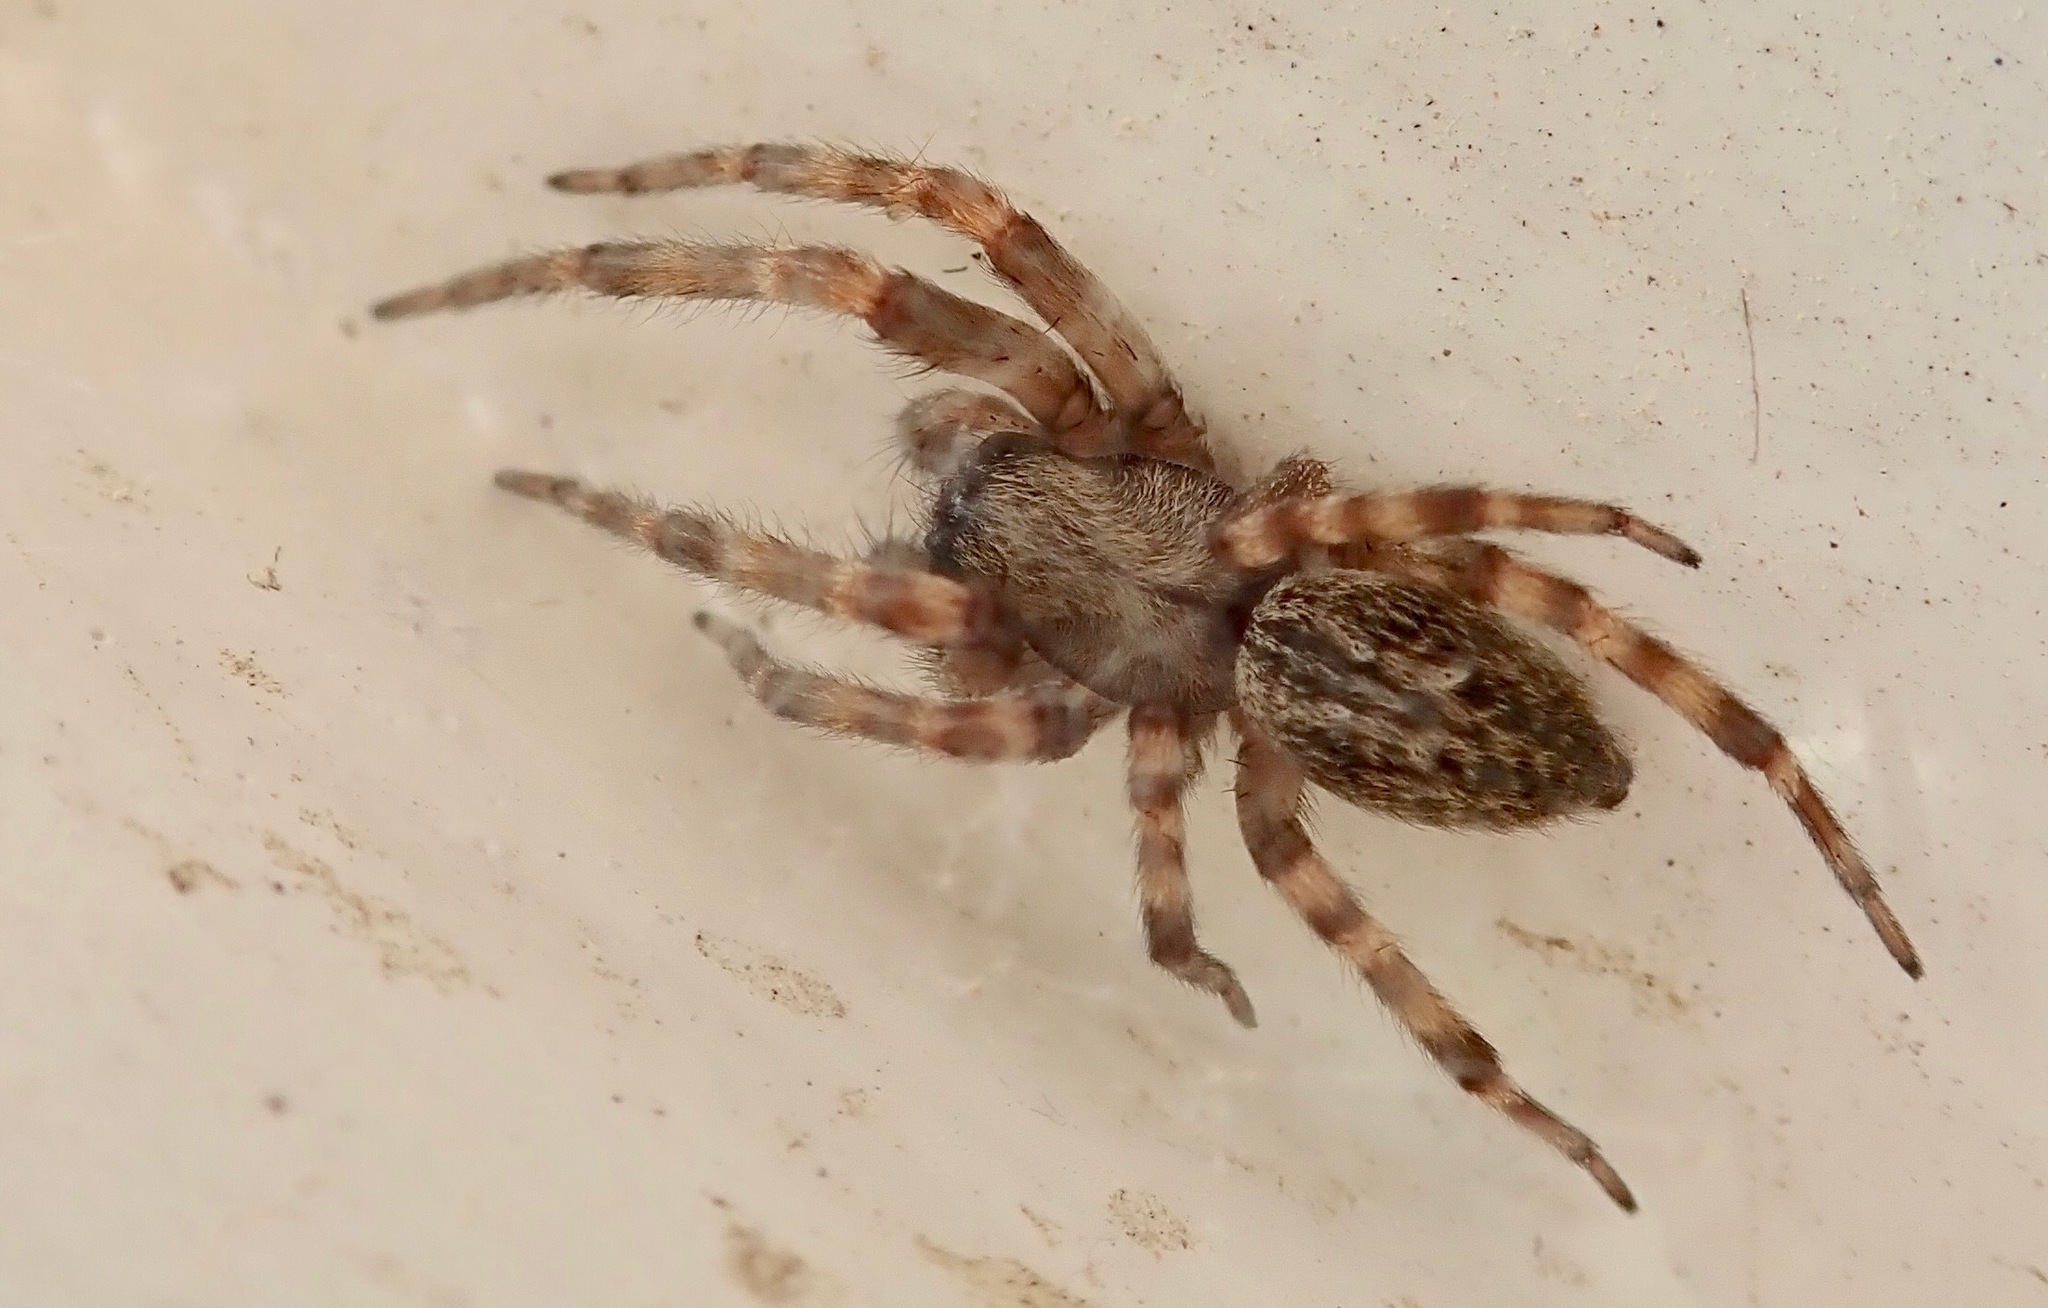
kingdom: Animalia
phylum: Arthropoda
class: Arachnida
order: Araneae
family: Desidae
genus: Badumna
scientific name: Badumna longinqua
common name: Gray house spider
